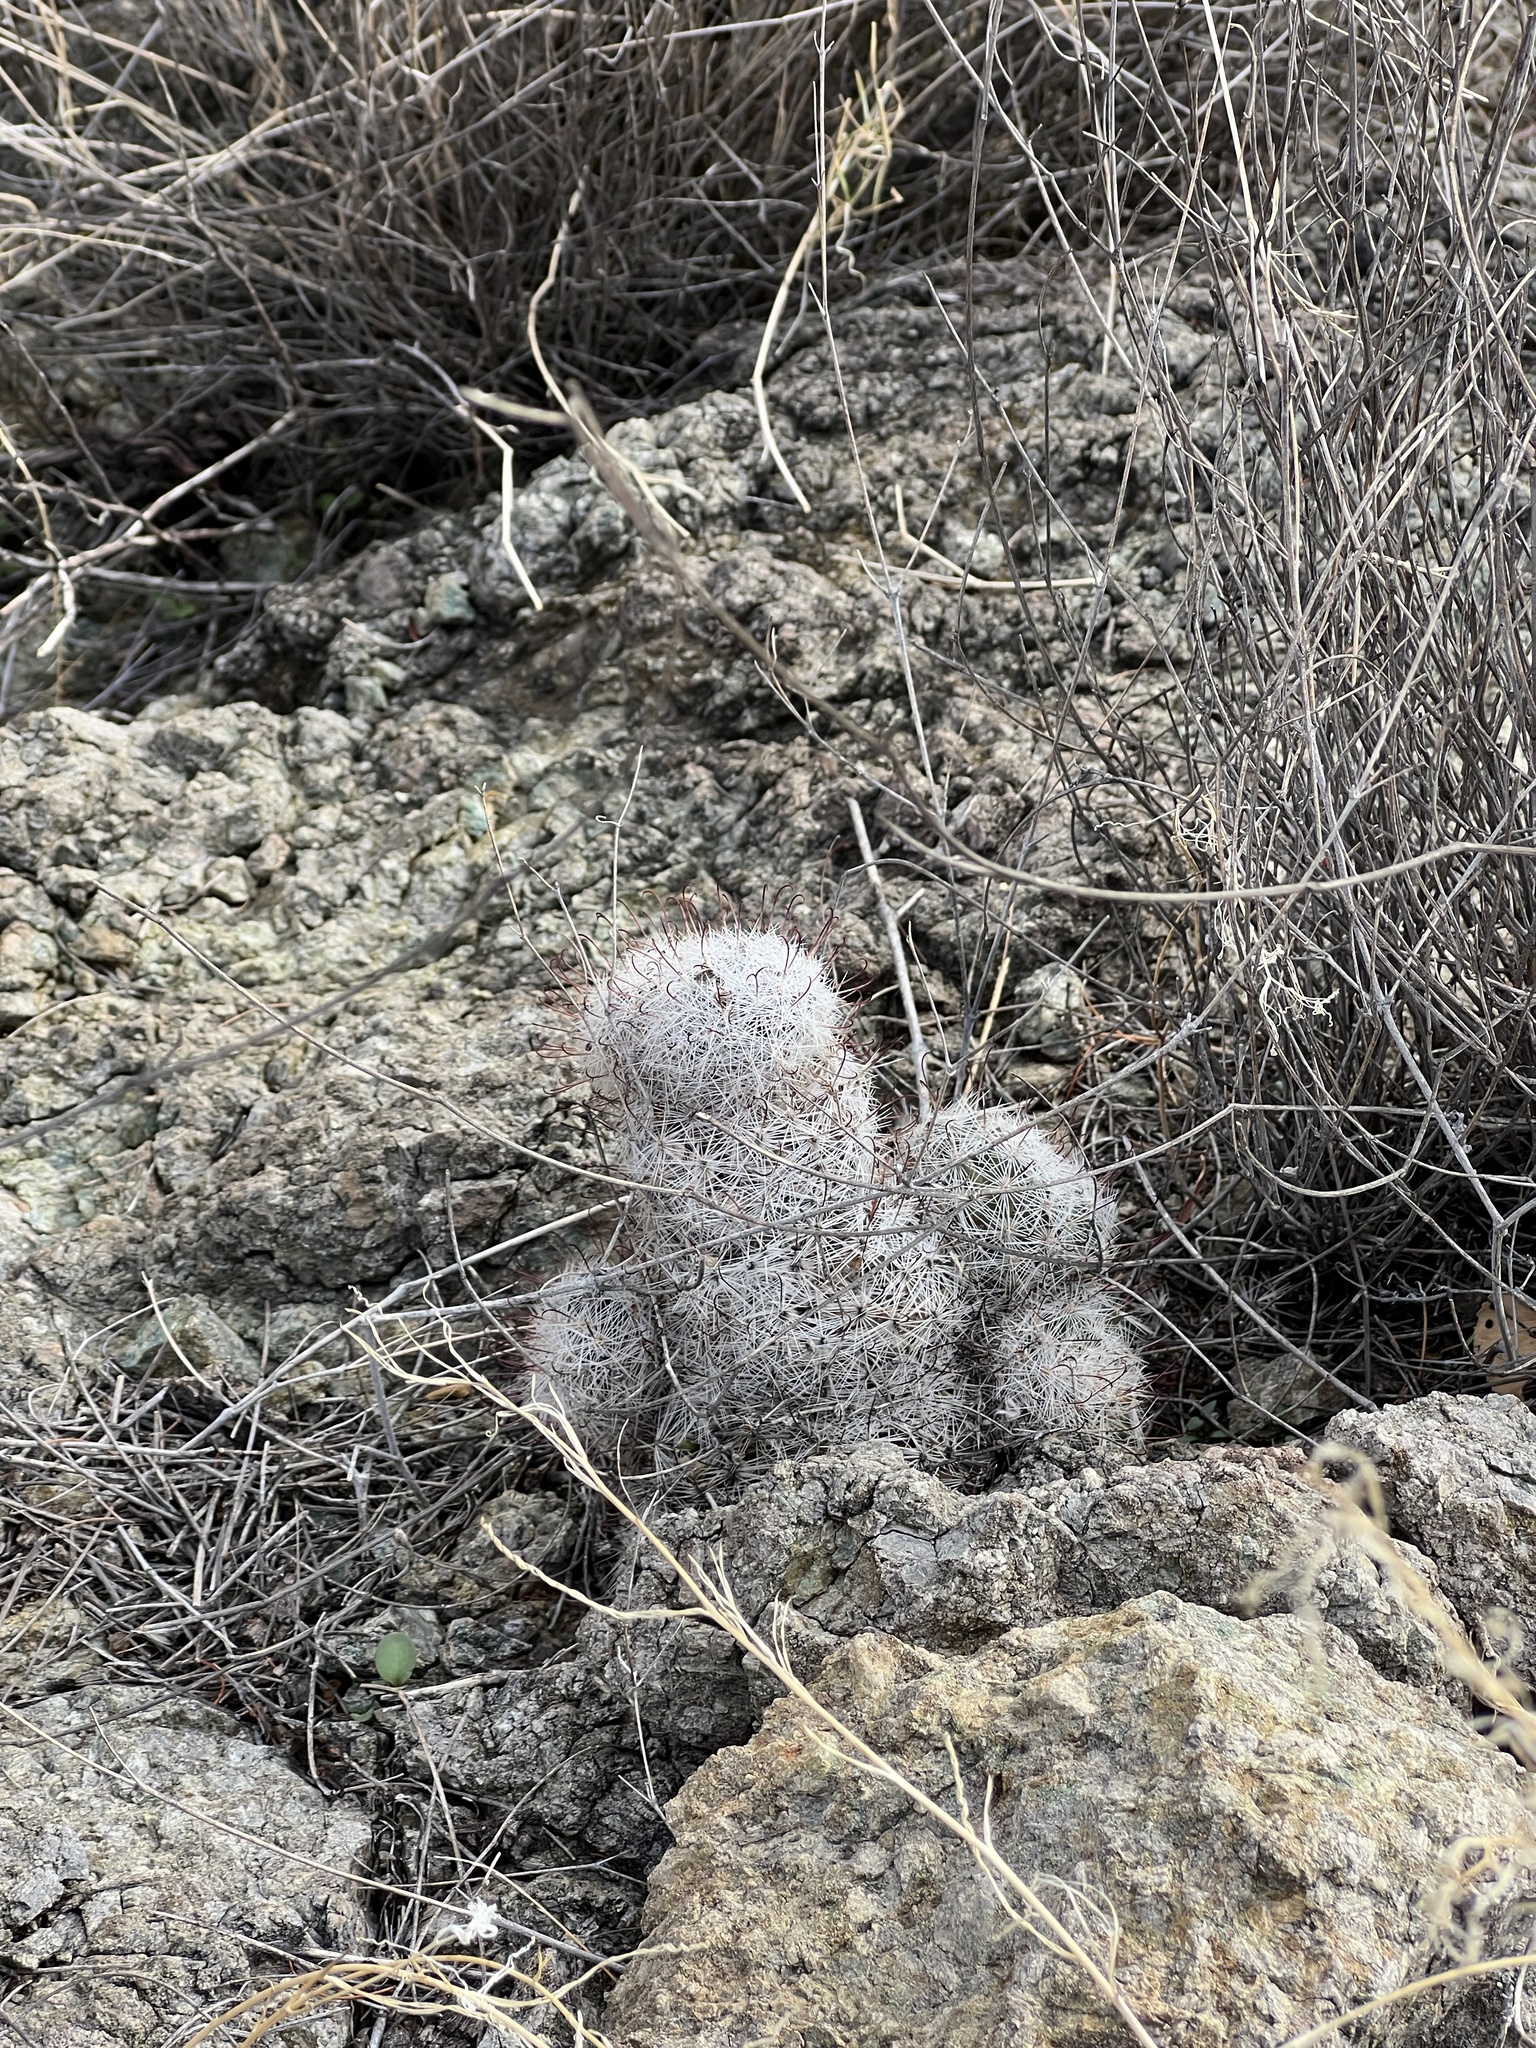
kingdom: Plantae
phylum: Tracheophyta
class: Magnoliopsida
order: Caryophyllales
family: Cactaceae
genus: Cochemiea
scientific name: Cochemiea grahamii
